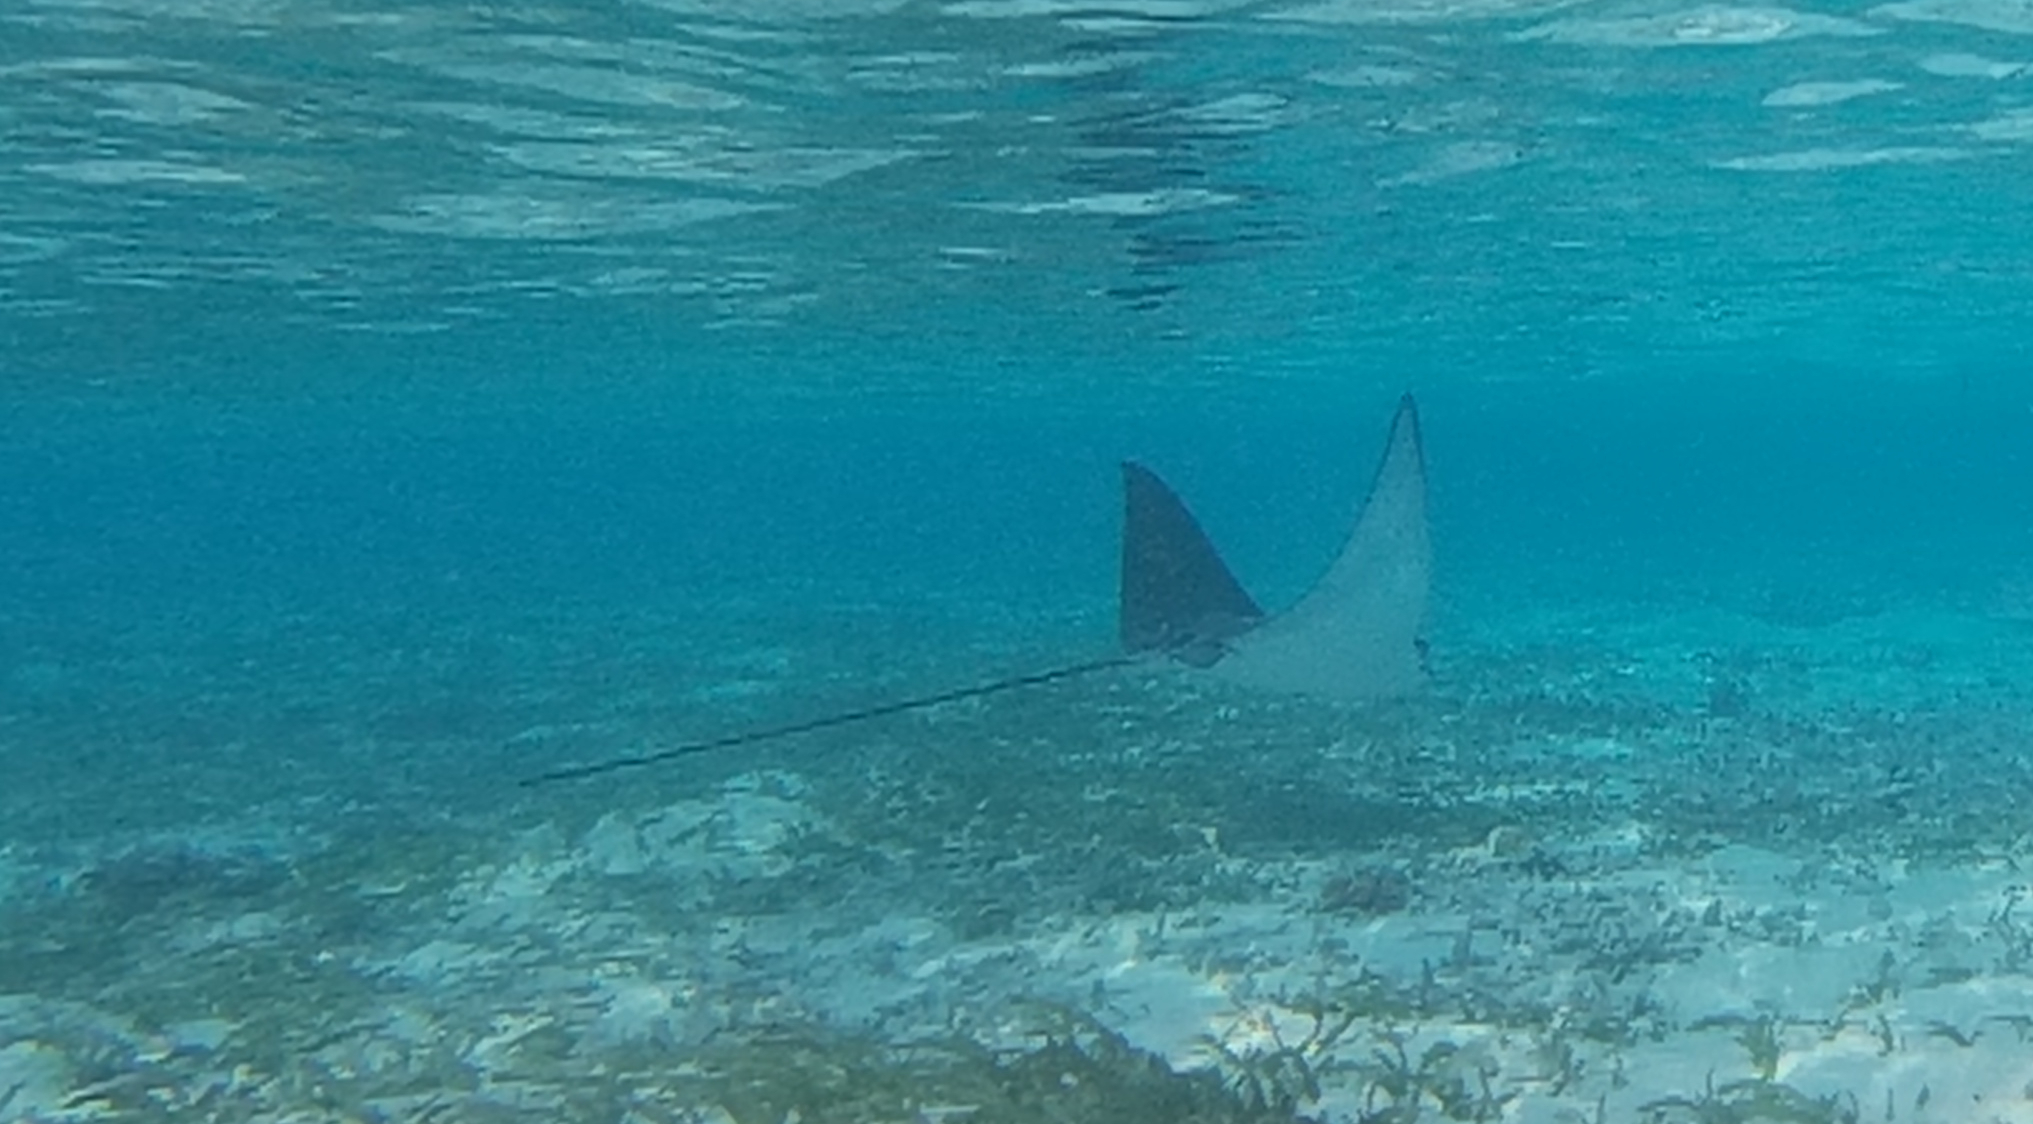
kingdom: Animalia
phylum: Chordata
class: Elasmobranchii
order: Myliobatiformes
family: Myliobatidae
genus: Aetobatus
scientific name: Aetobatus ocellatus
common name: Ocellated eagle ray
